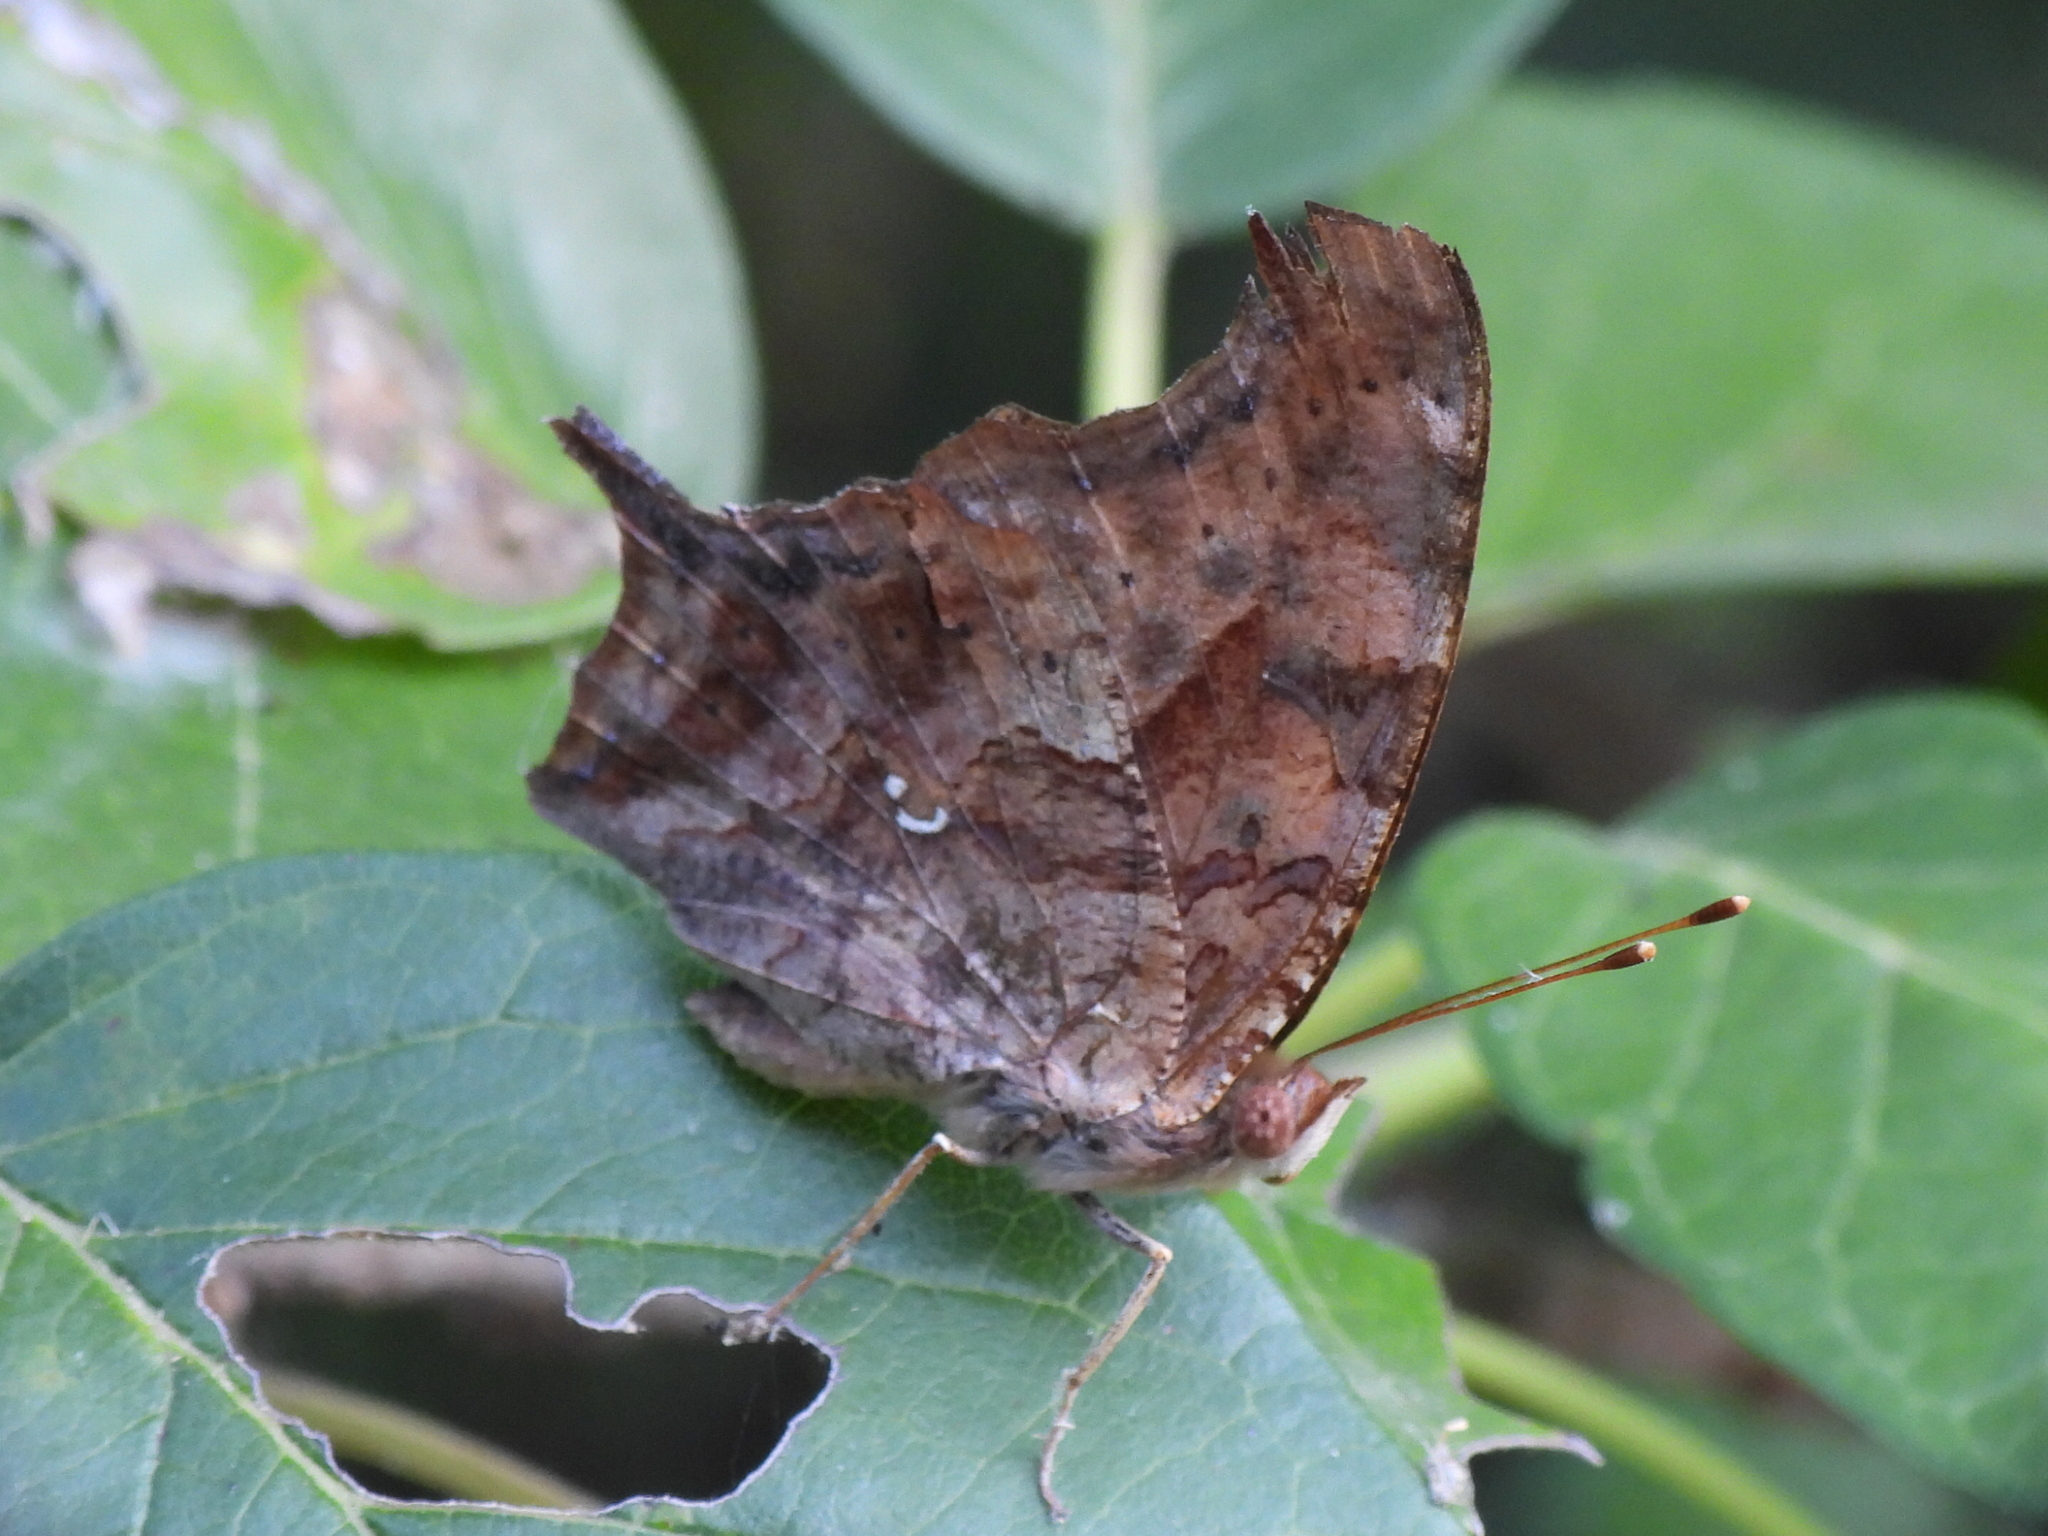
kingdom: Animalia
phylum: Arthropoda
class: Insecta
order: Lepidoptera
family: Nymphalidae
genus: Polygonia
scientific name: Polygonia interrogationis
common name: Question mark
